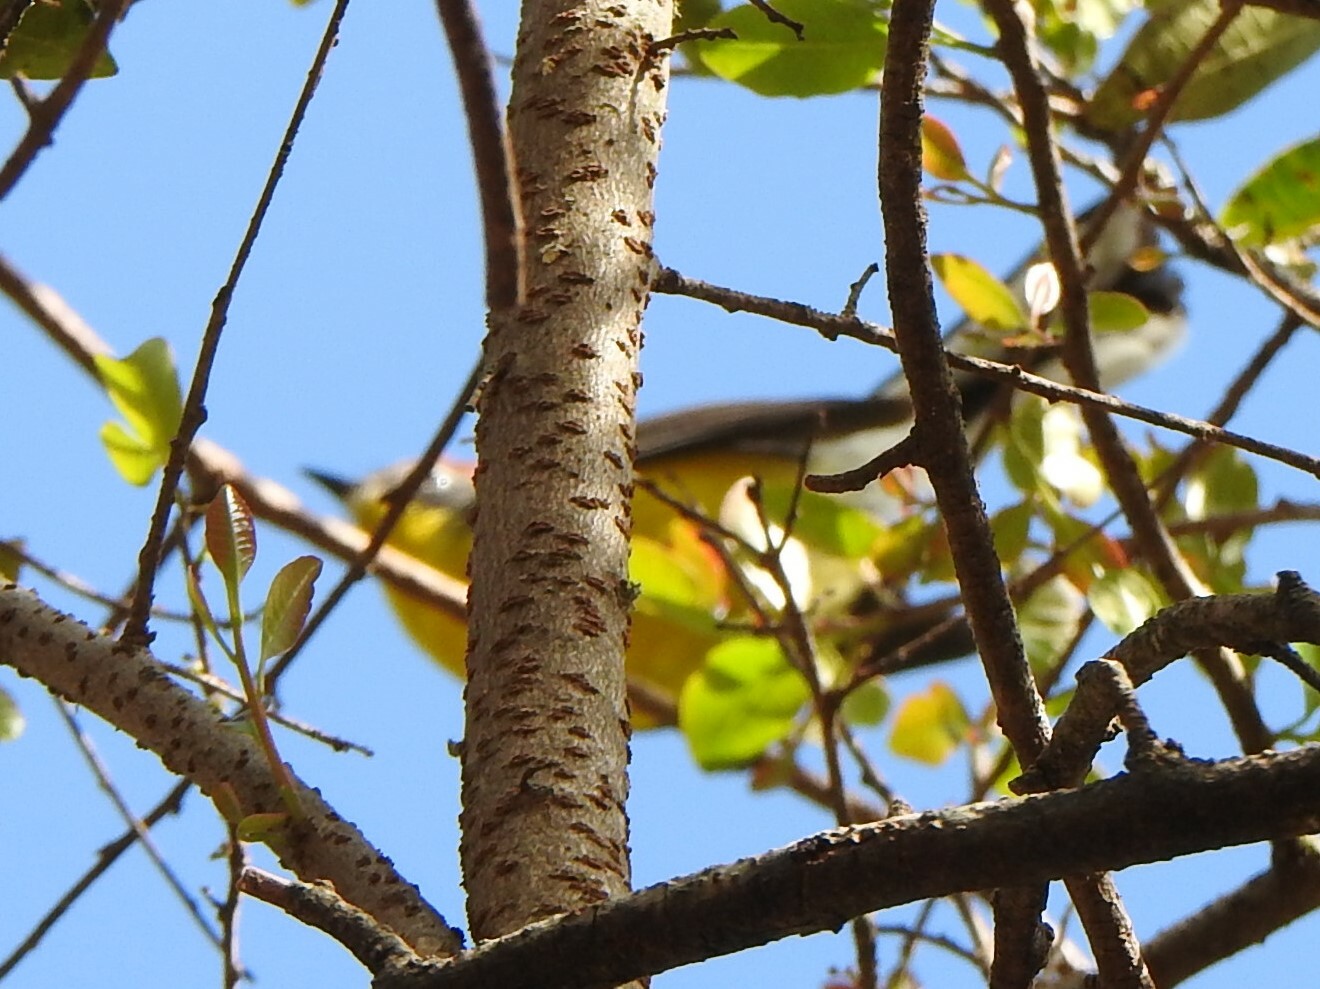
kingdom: Animalia
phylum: Chordata
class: Aves
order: Passeriformes
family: Parulidae
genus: Myioborus
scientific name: Myioborus brunniceps
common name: Brown-capped whitestart
